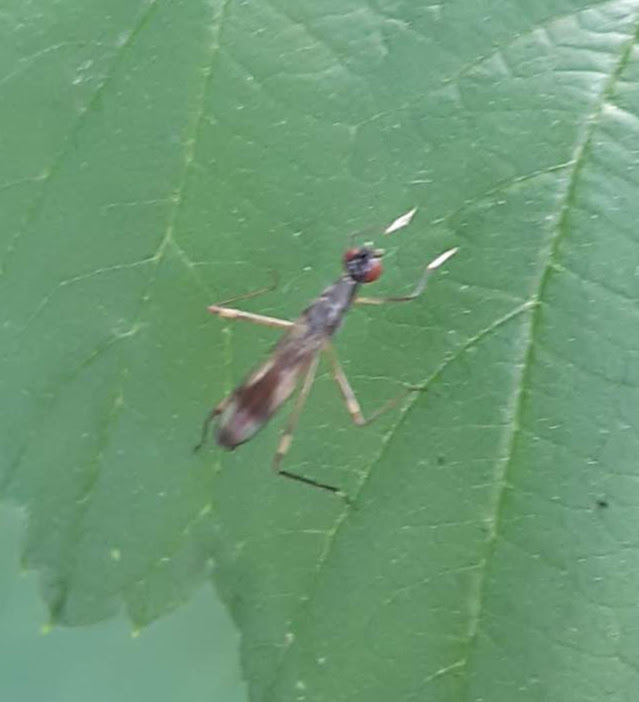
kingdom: Animalia
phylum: Arthropoda
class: Insecta
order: Diptera
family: Micropezidae
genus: Rainieria
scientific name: Rainieria antennaepes
